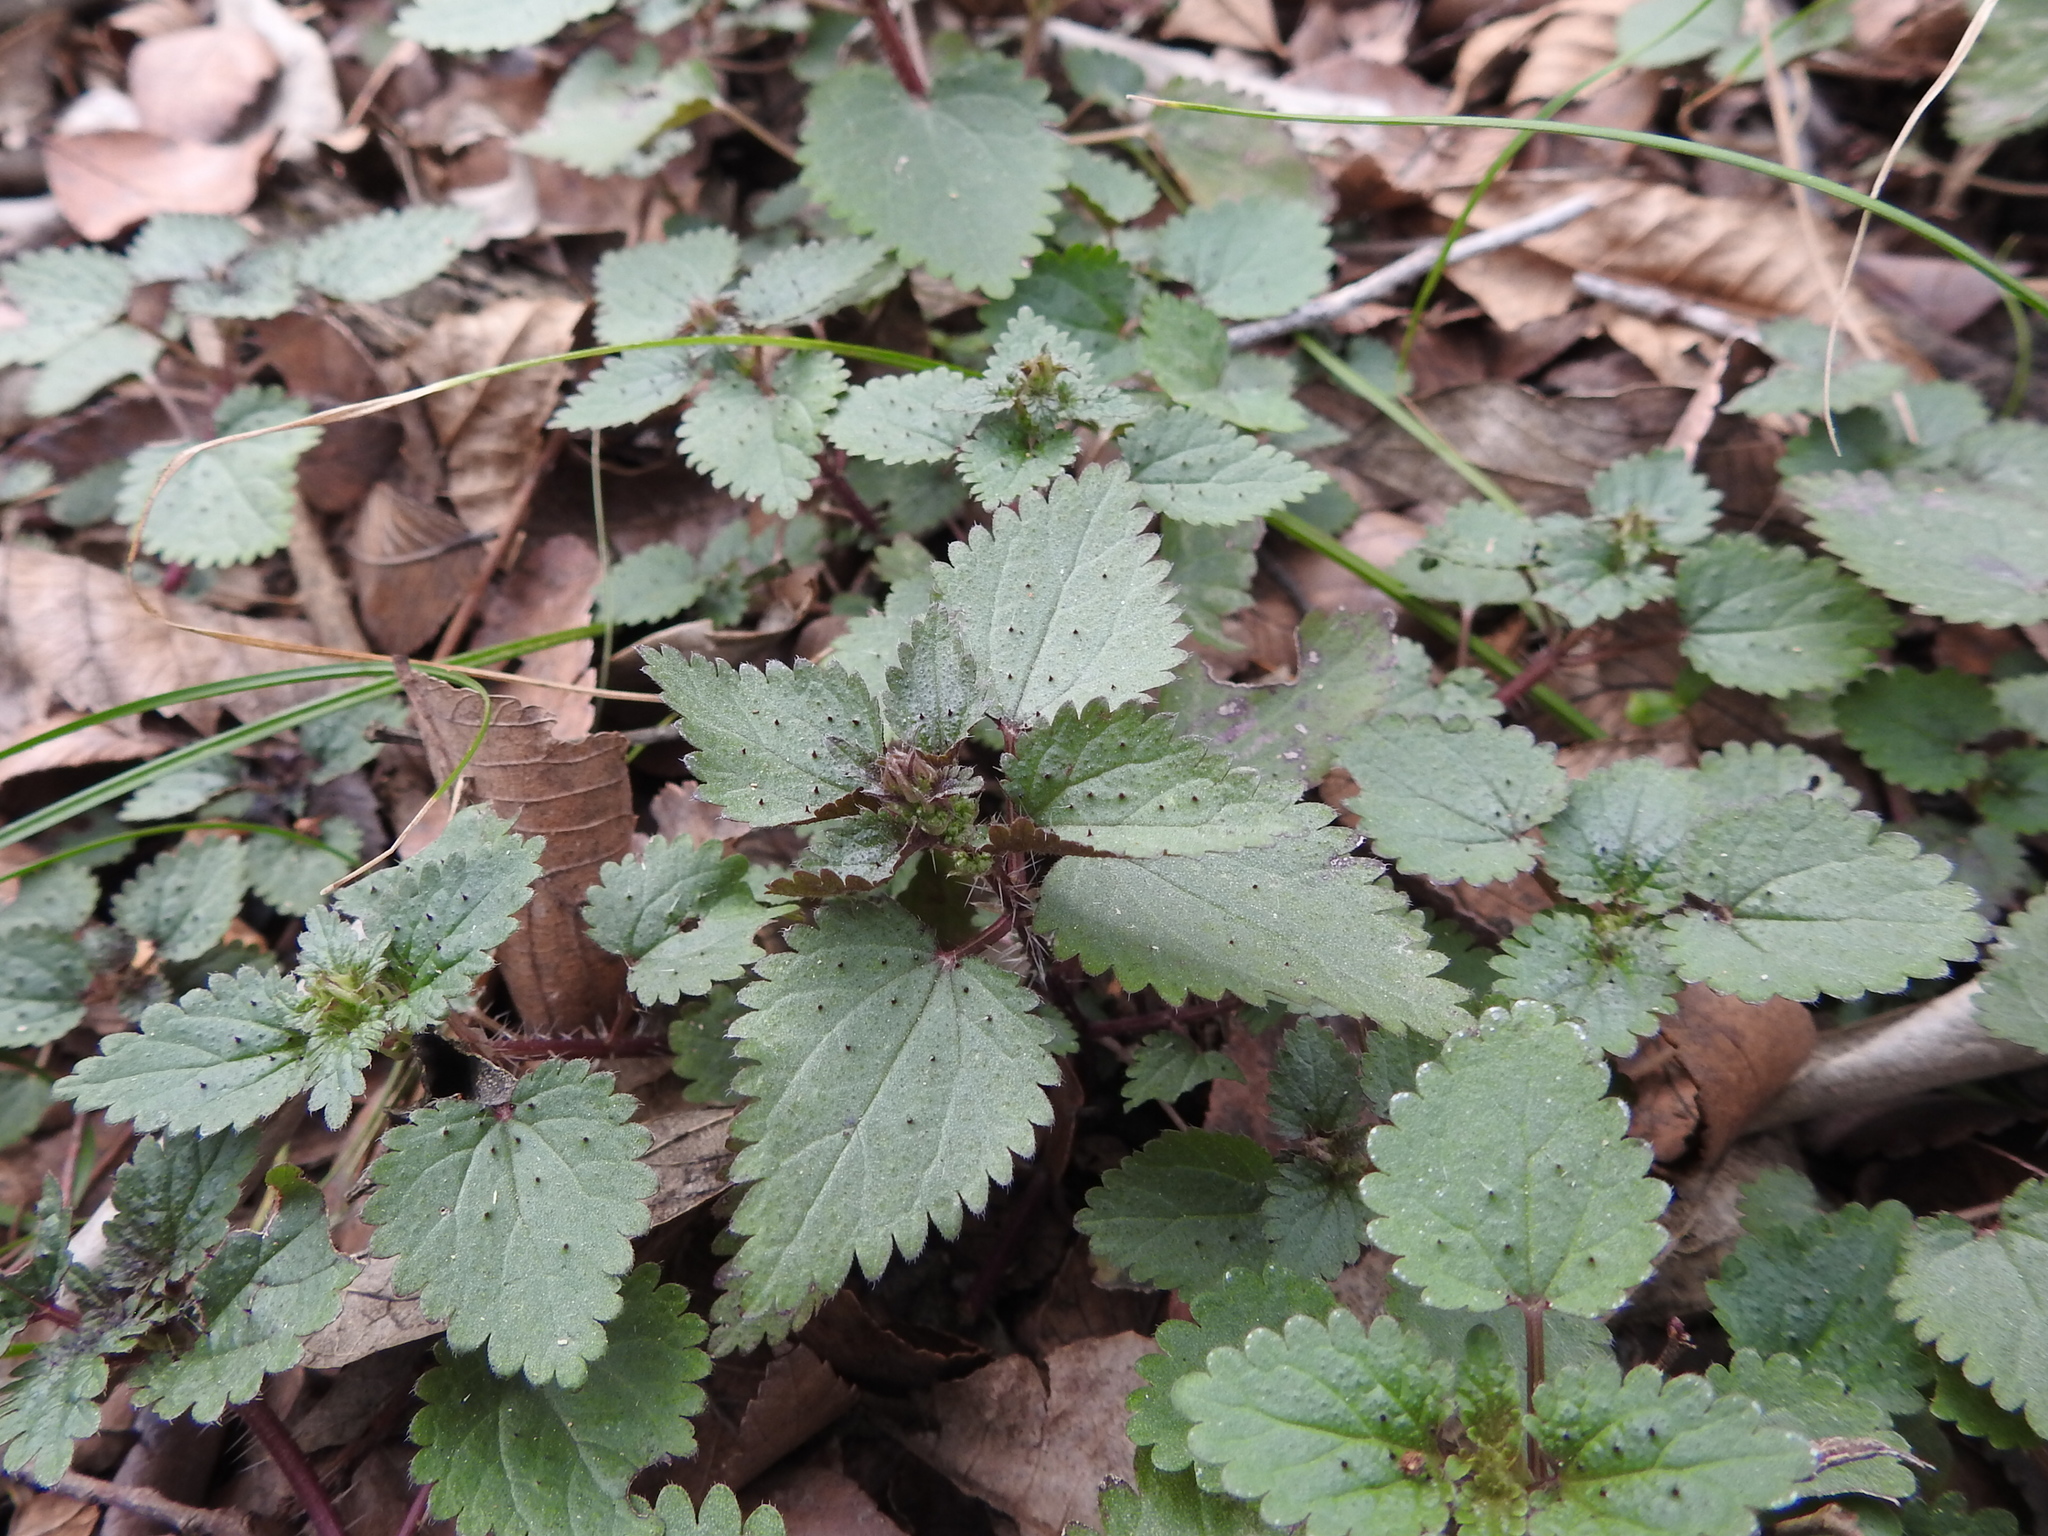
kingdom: Plantae
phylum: Tracheophyta
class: Magnoliopsida
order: Rosales
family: Urticaceae
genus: Urtica
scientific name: Urtica chamaedryoides
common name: Heart-leaf nettle
